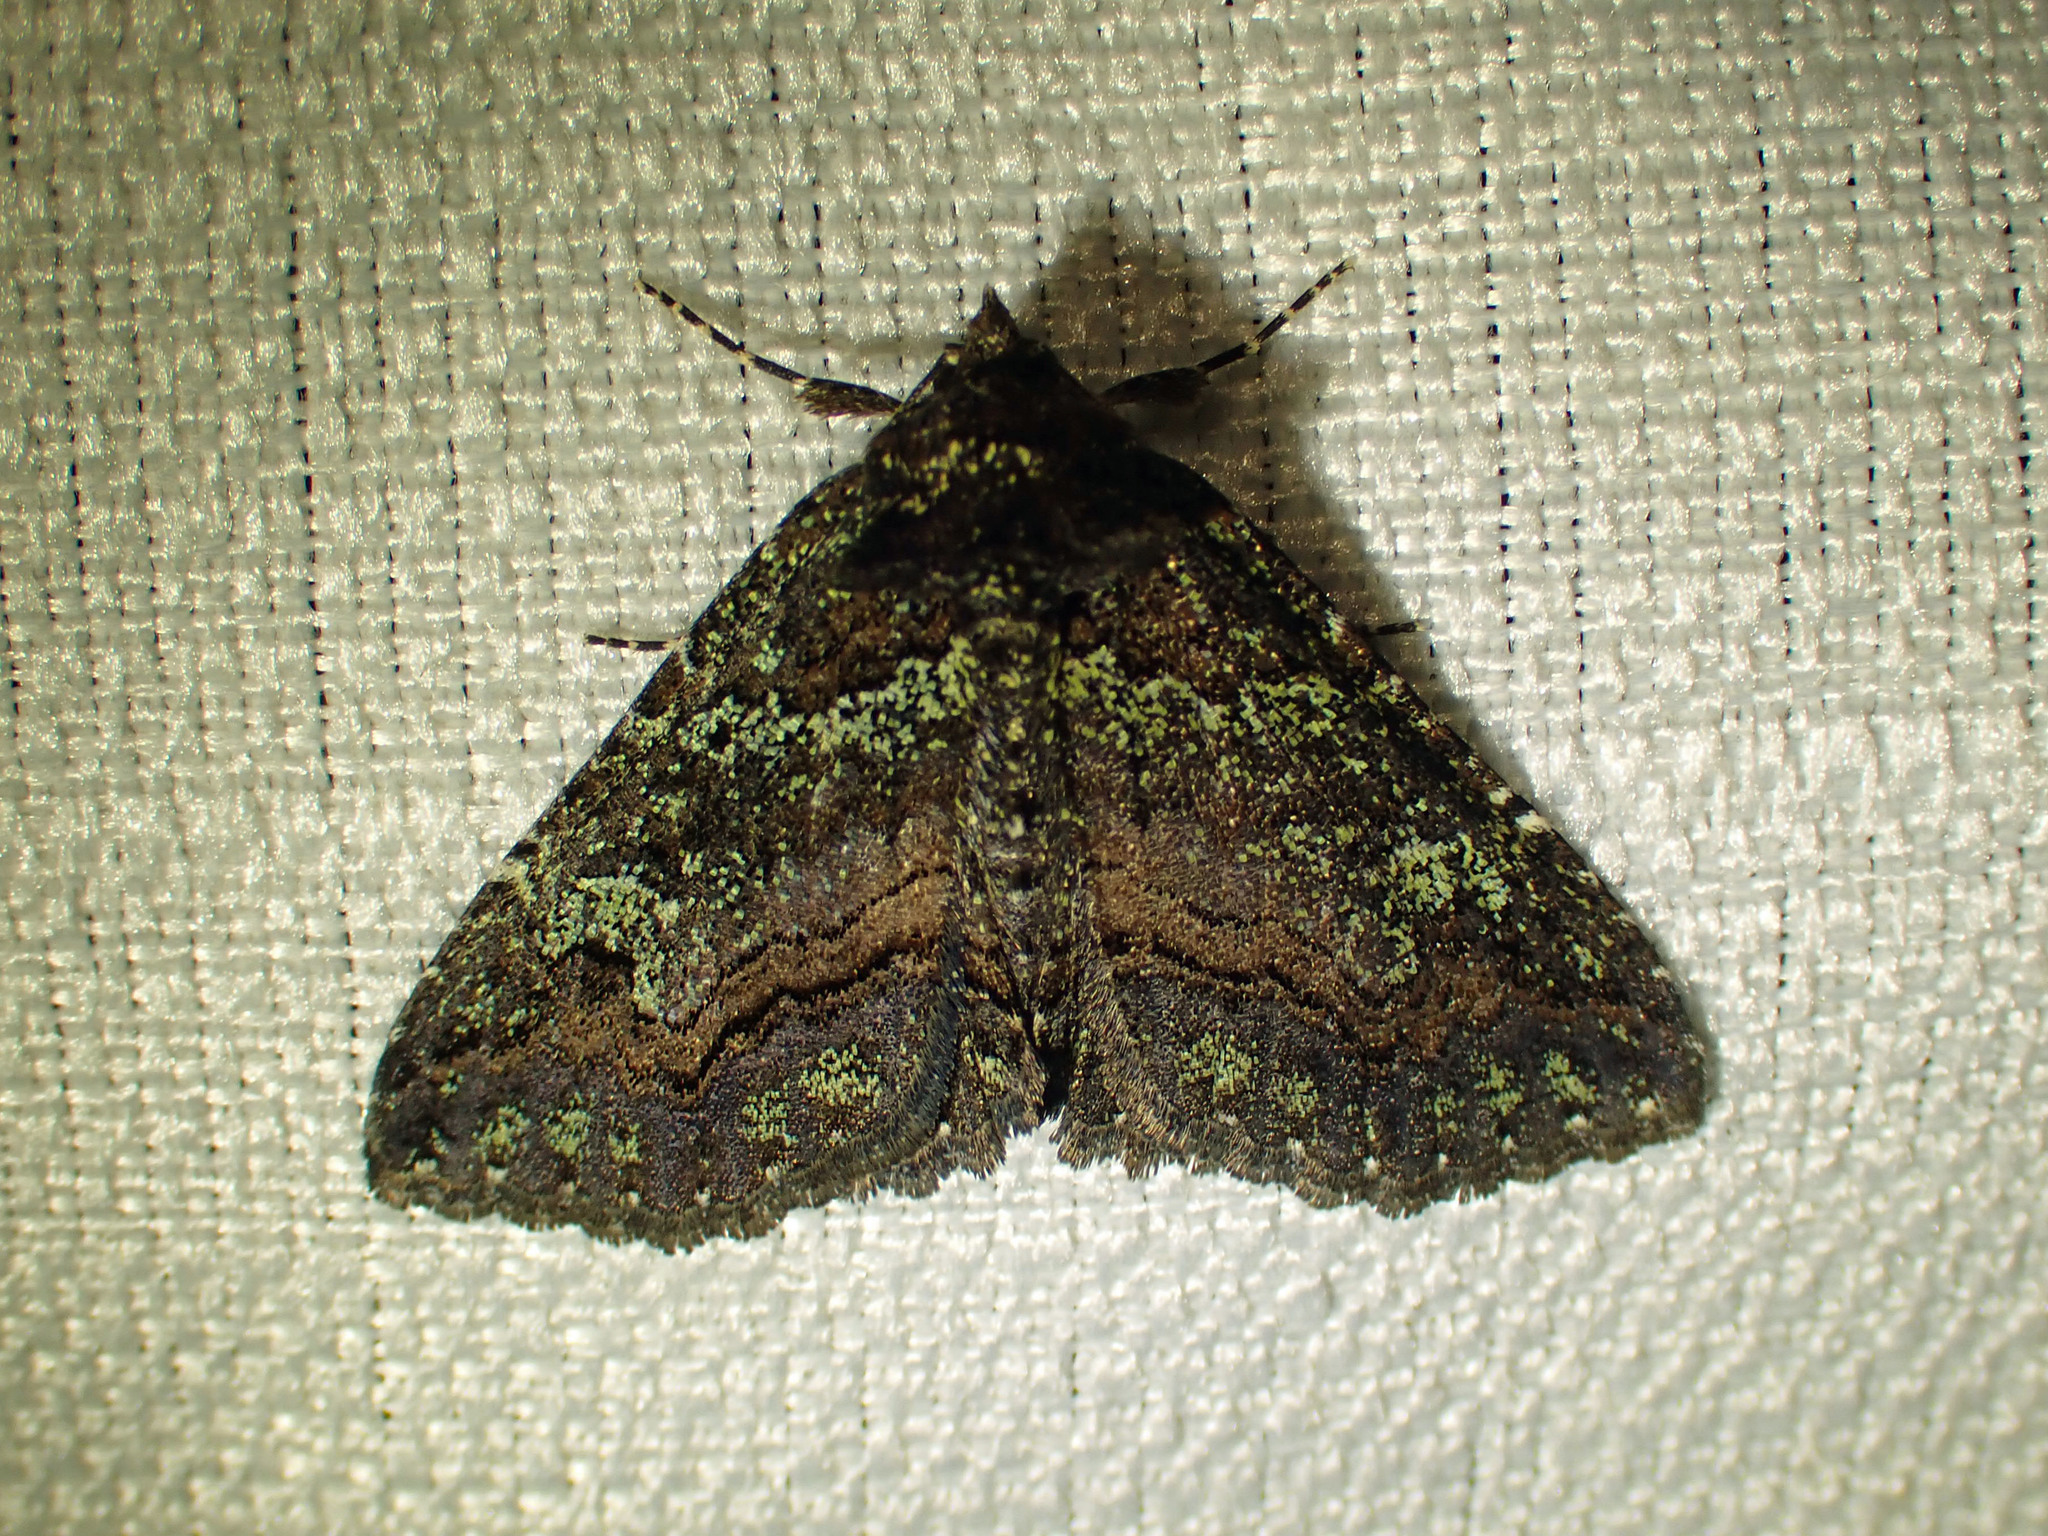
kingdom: Animalia
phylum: Arthropoda
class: Insecta
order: Lepidoptera
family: Erebidae
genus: Zale
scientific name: Zale aeruginosa
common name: Green-dusted zale moth
